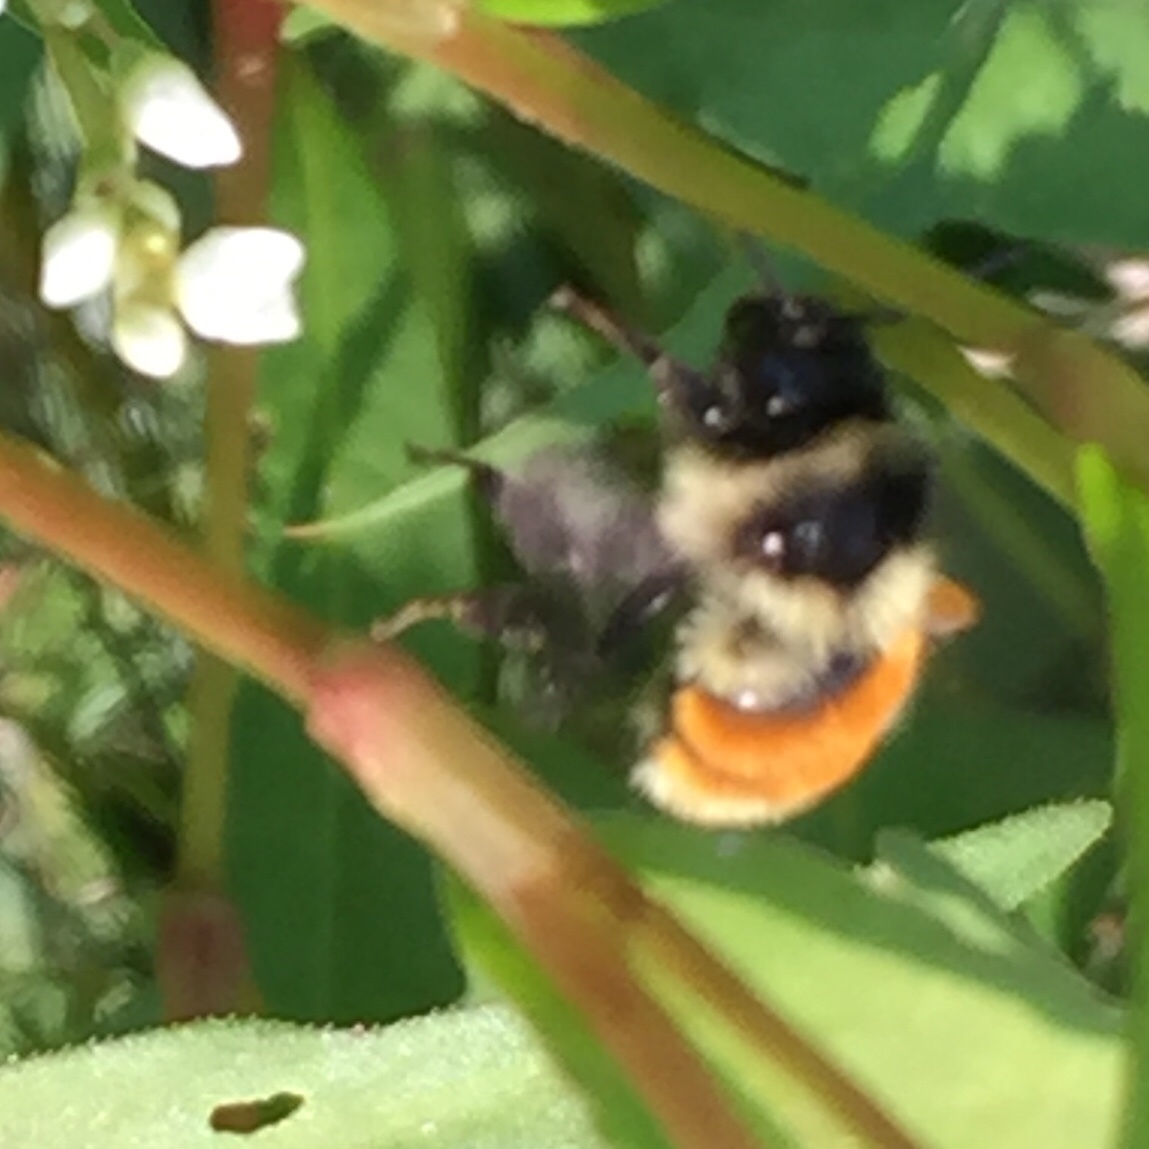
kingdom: Animalia
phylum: Arthropoda
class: Insecta
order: Hymenoptera
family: Apidae
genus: Bombus
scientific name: Bombus ternarius
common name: Tri-colored bumble bee
